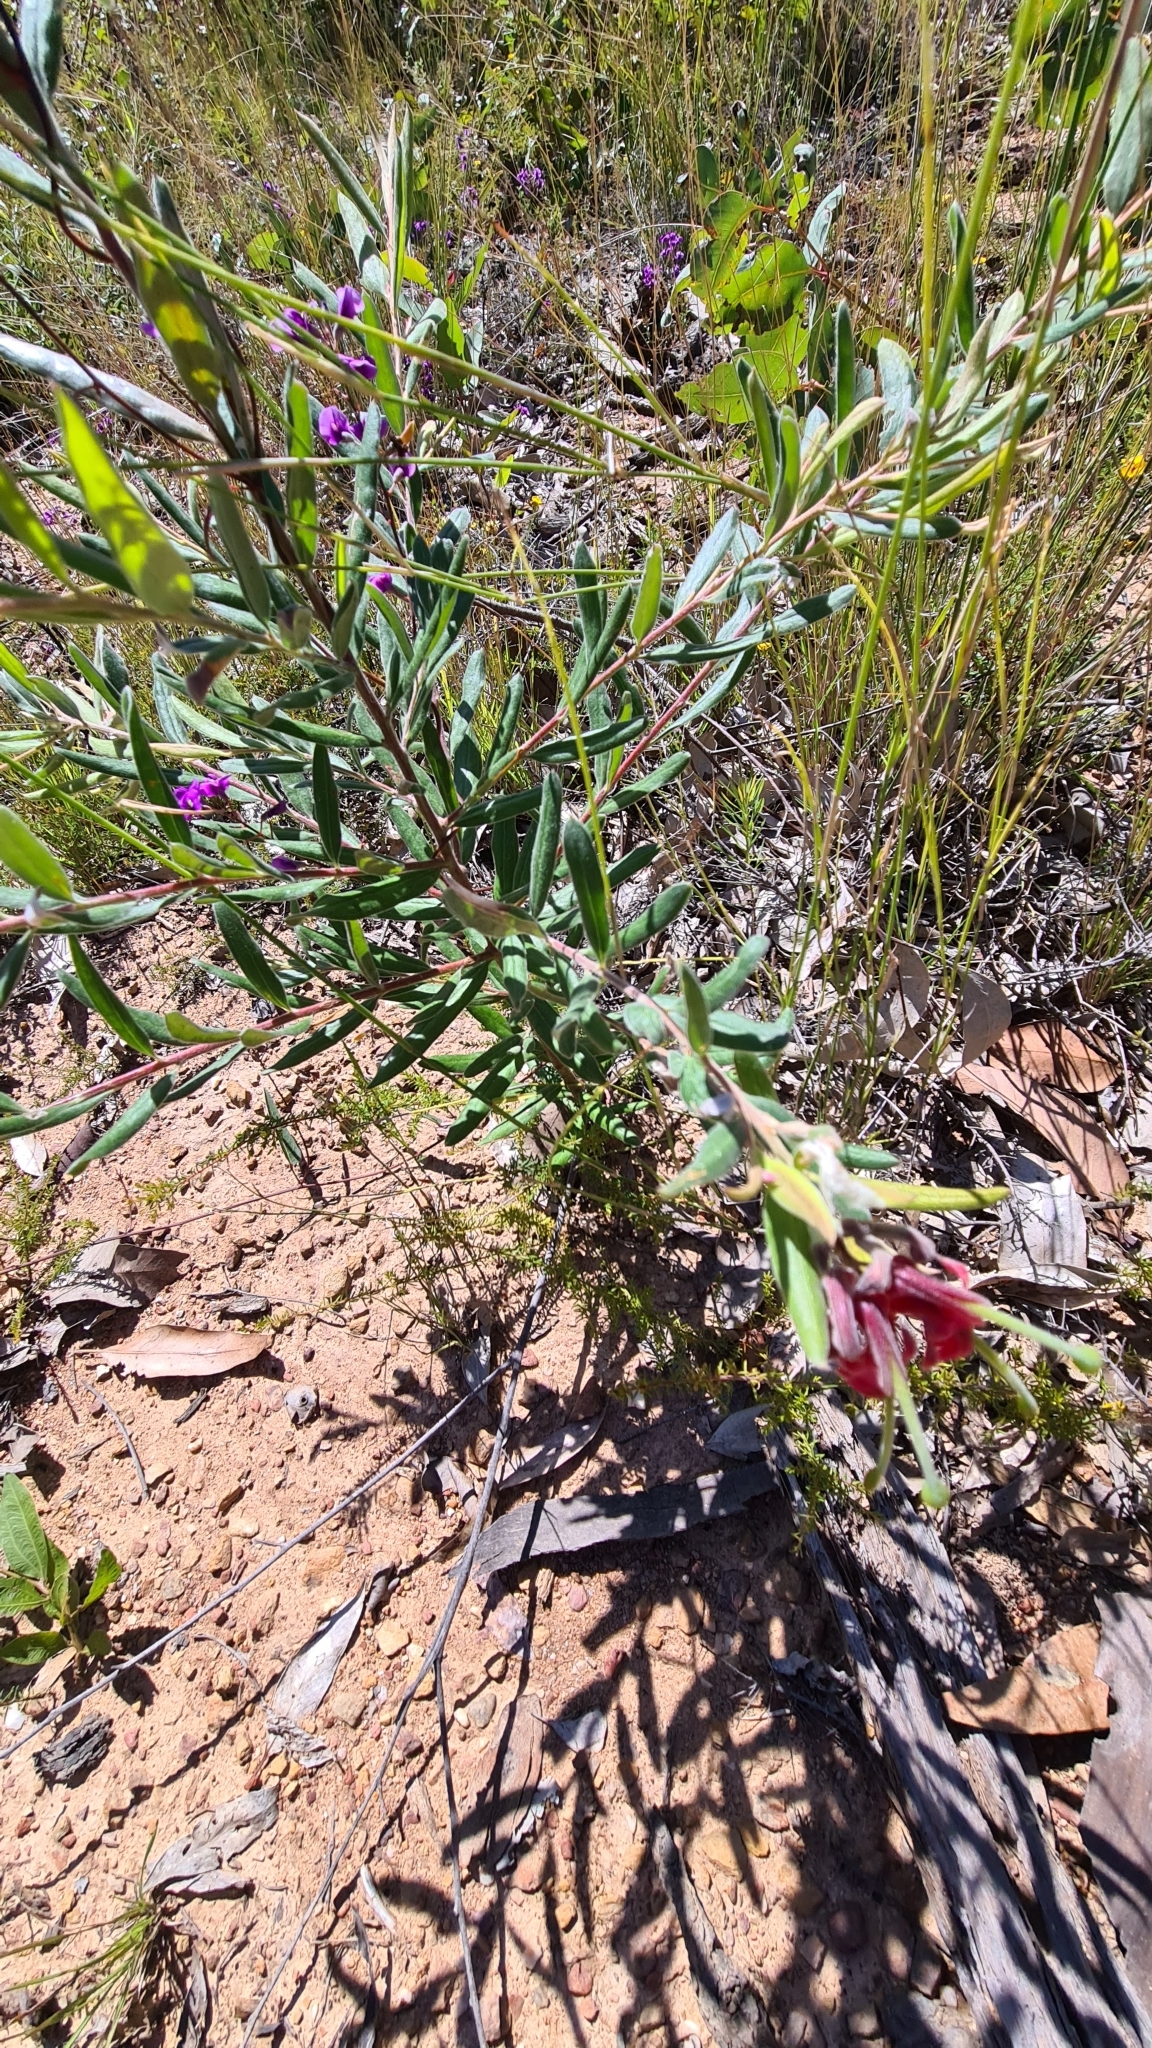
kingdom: Plantae
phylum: Tracheophyta
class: Magnoliopsida
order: Proteales
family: Proteaceae
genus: Grevillea
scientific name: Grevillea arenaria
